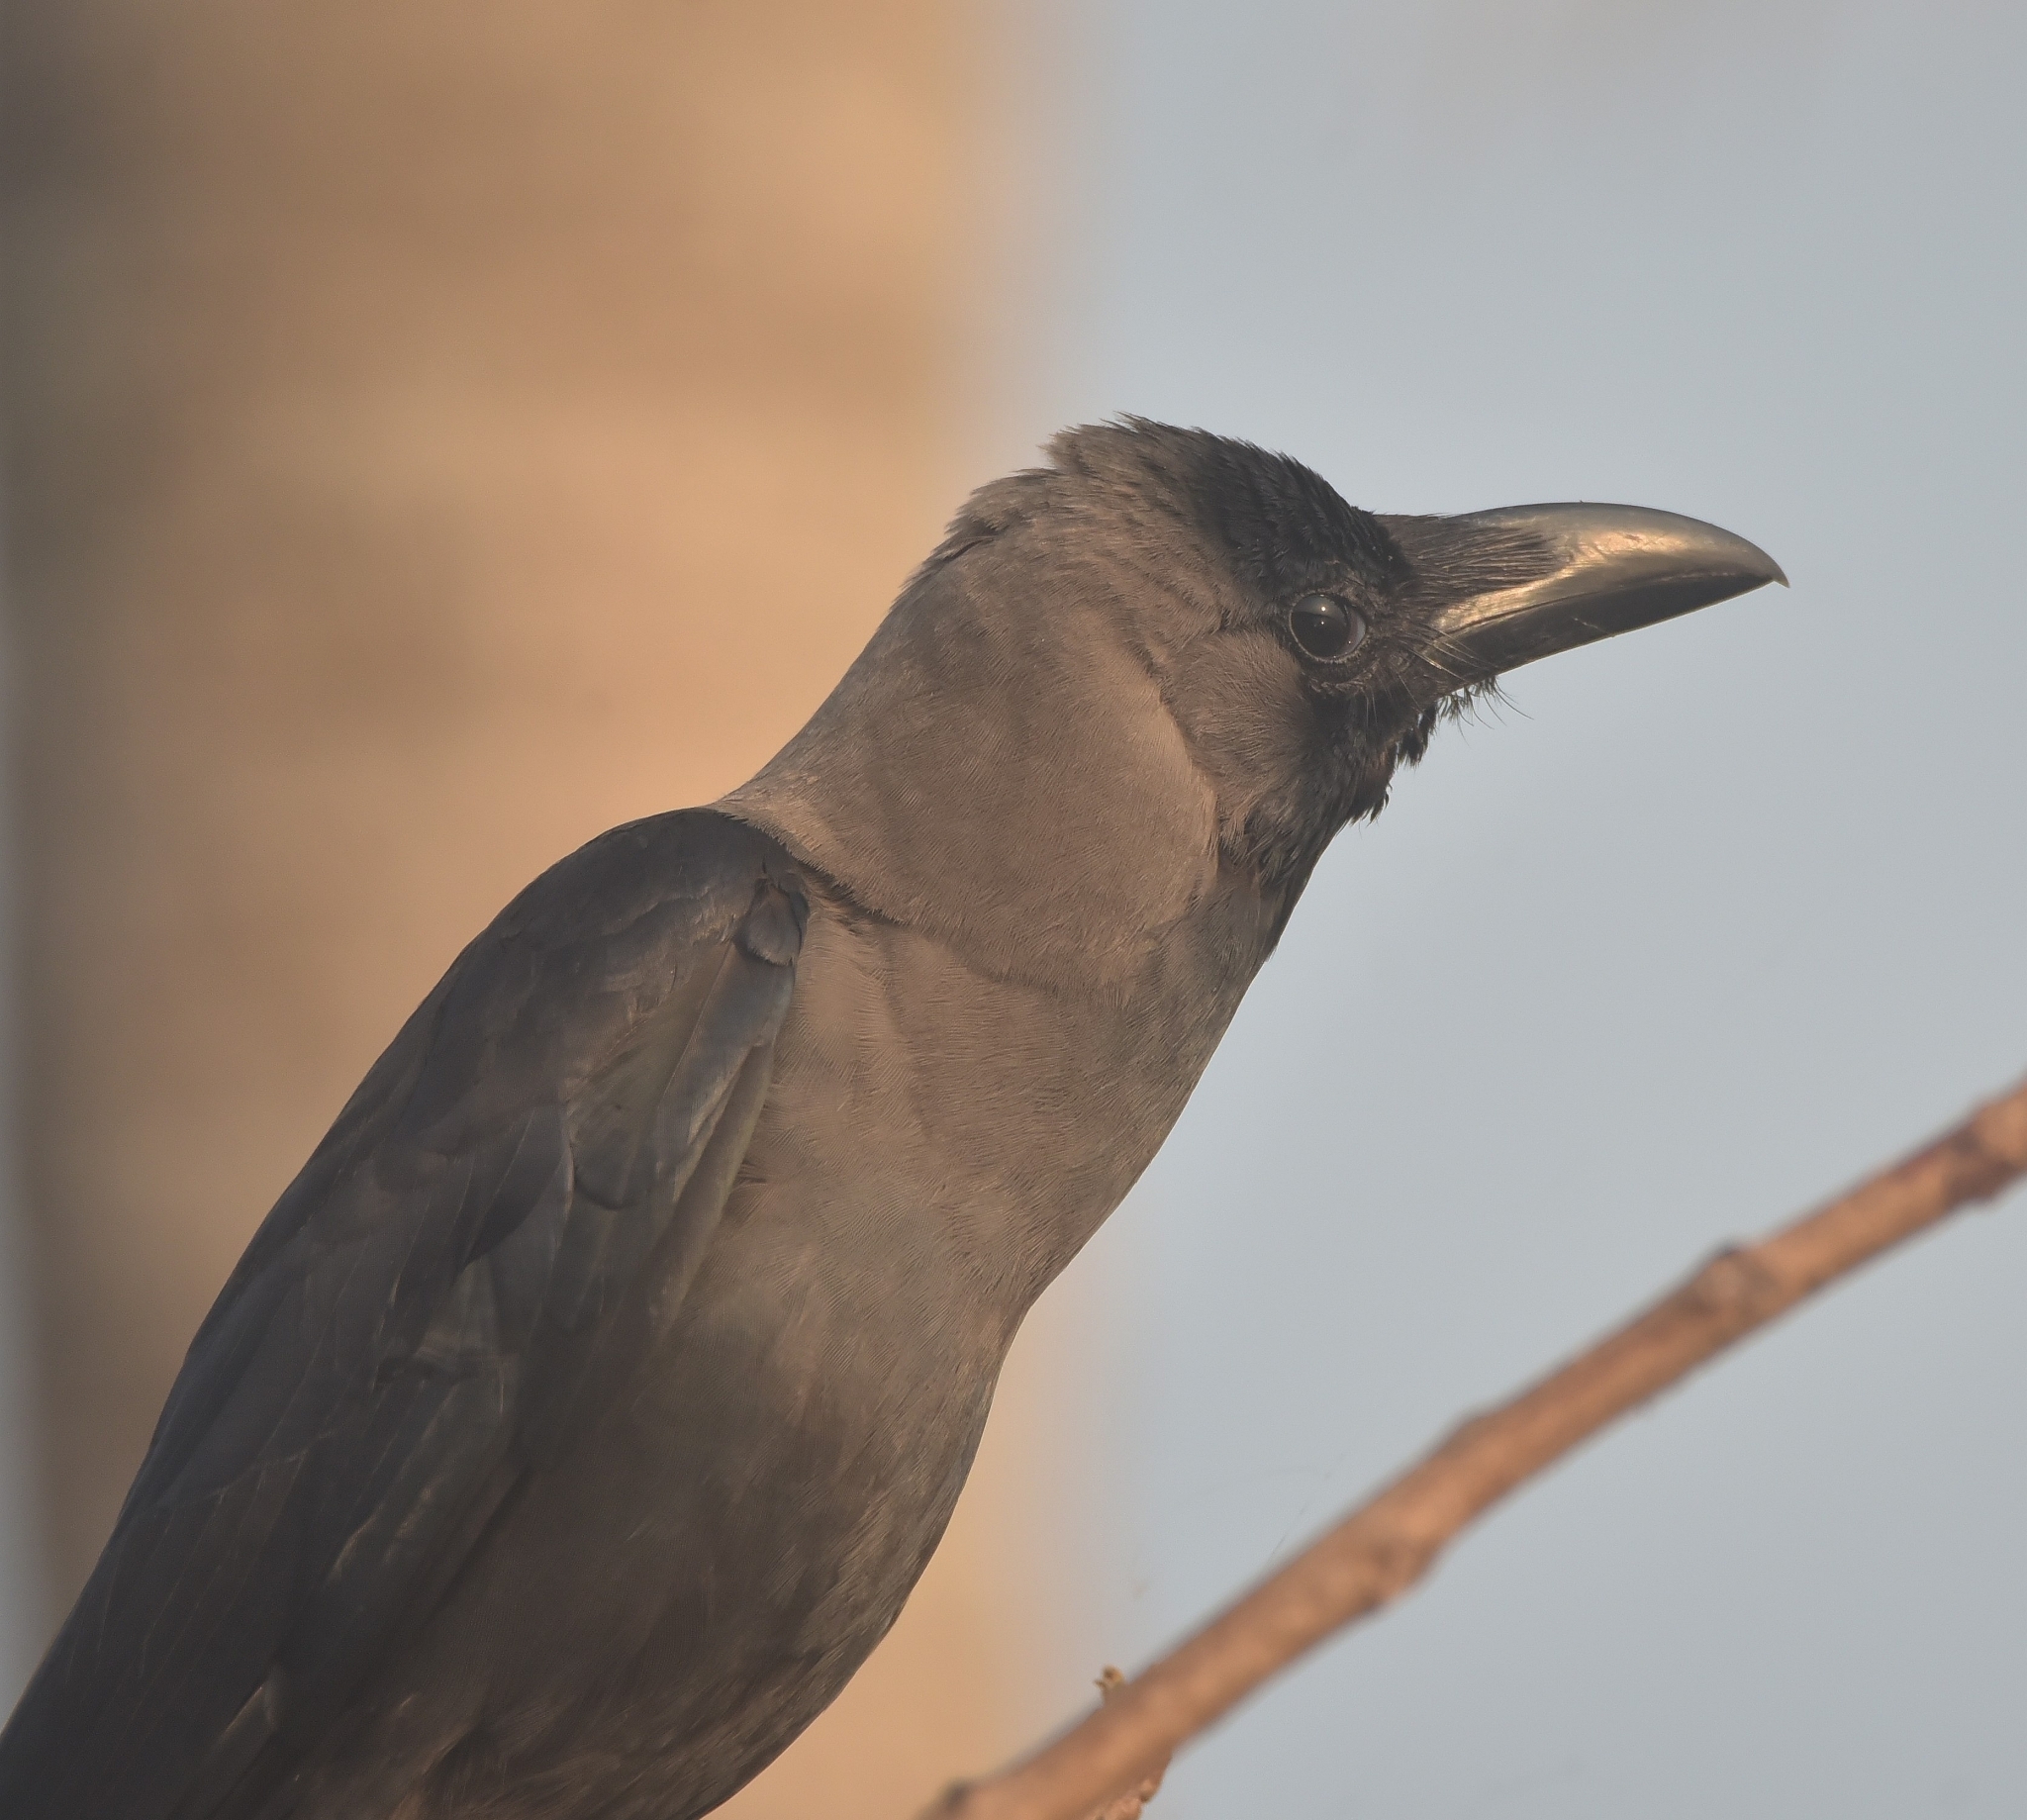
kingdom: Animalia
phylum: Chordata
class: Aves
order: Passeriformes
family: Corvidae
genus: Corvus
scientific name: Corvus splendens
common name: House crow
